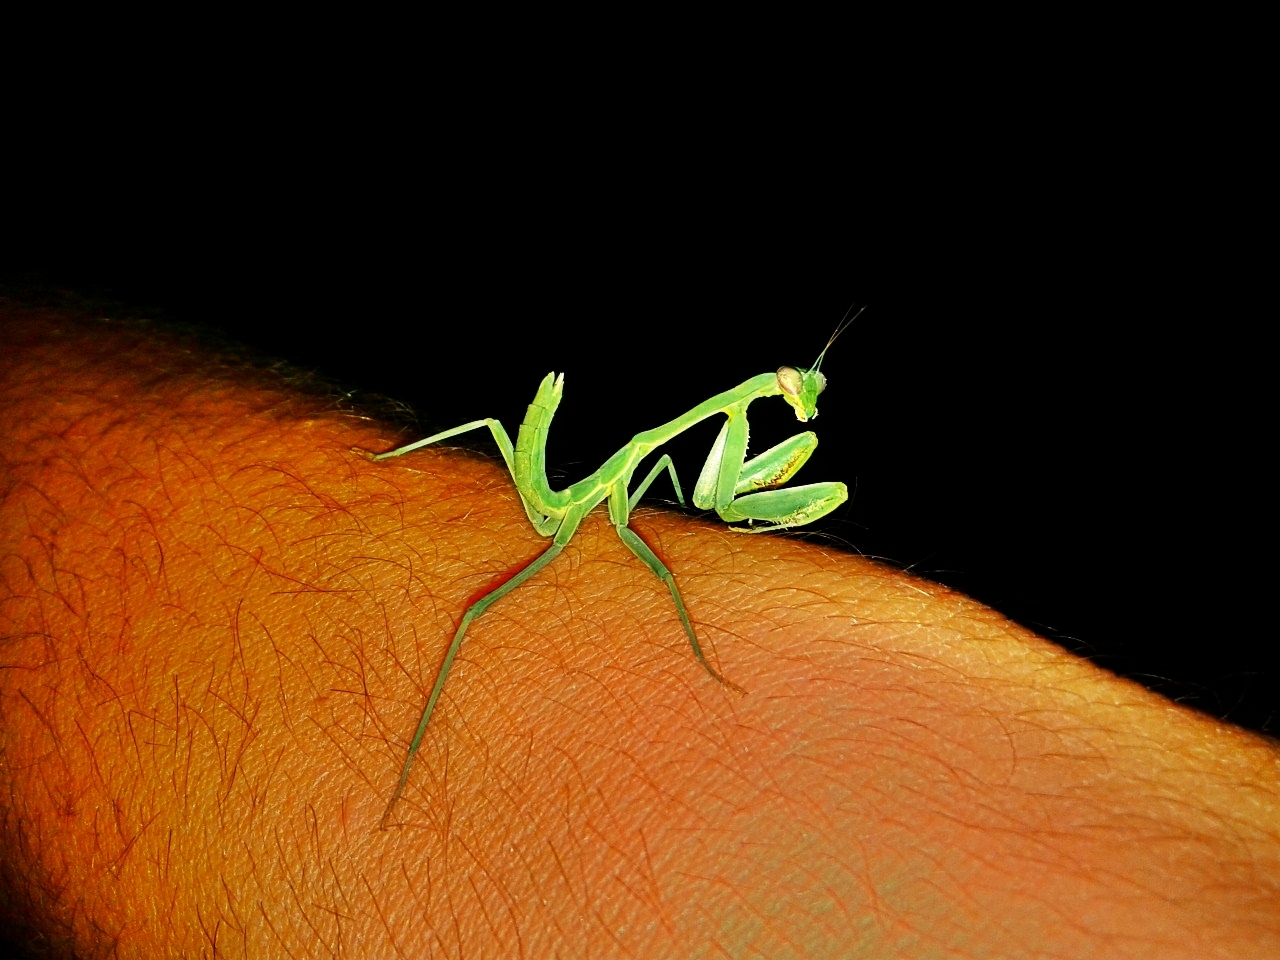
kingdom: Animalia
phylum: Arthropoda
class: Insecta
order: Mantodea
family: Mantidae
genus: Stagmomantis
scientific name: Stagmomantis limbata
